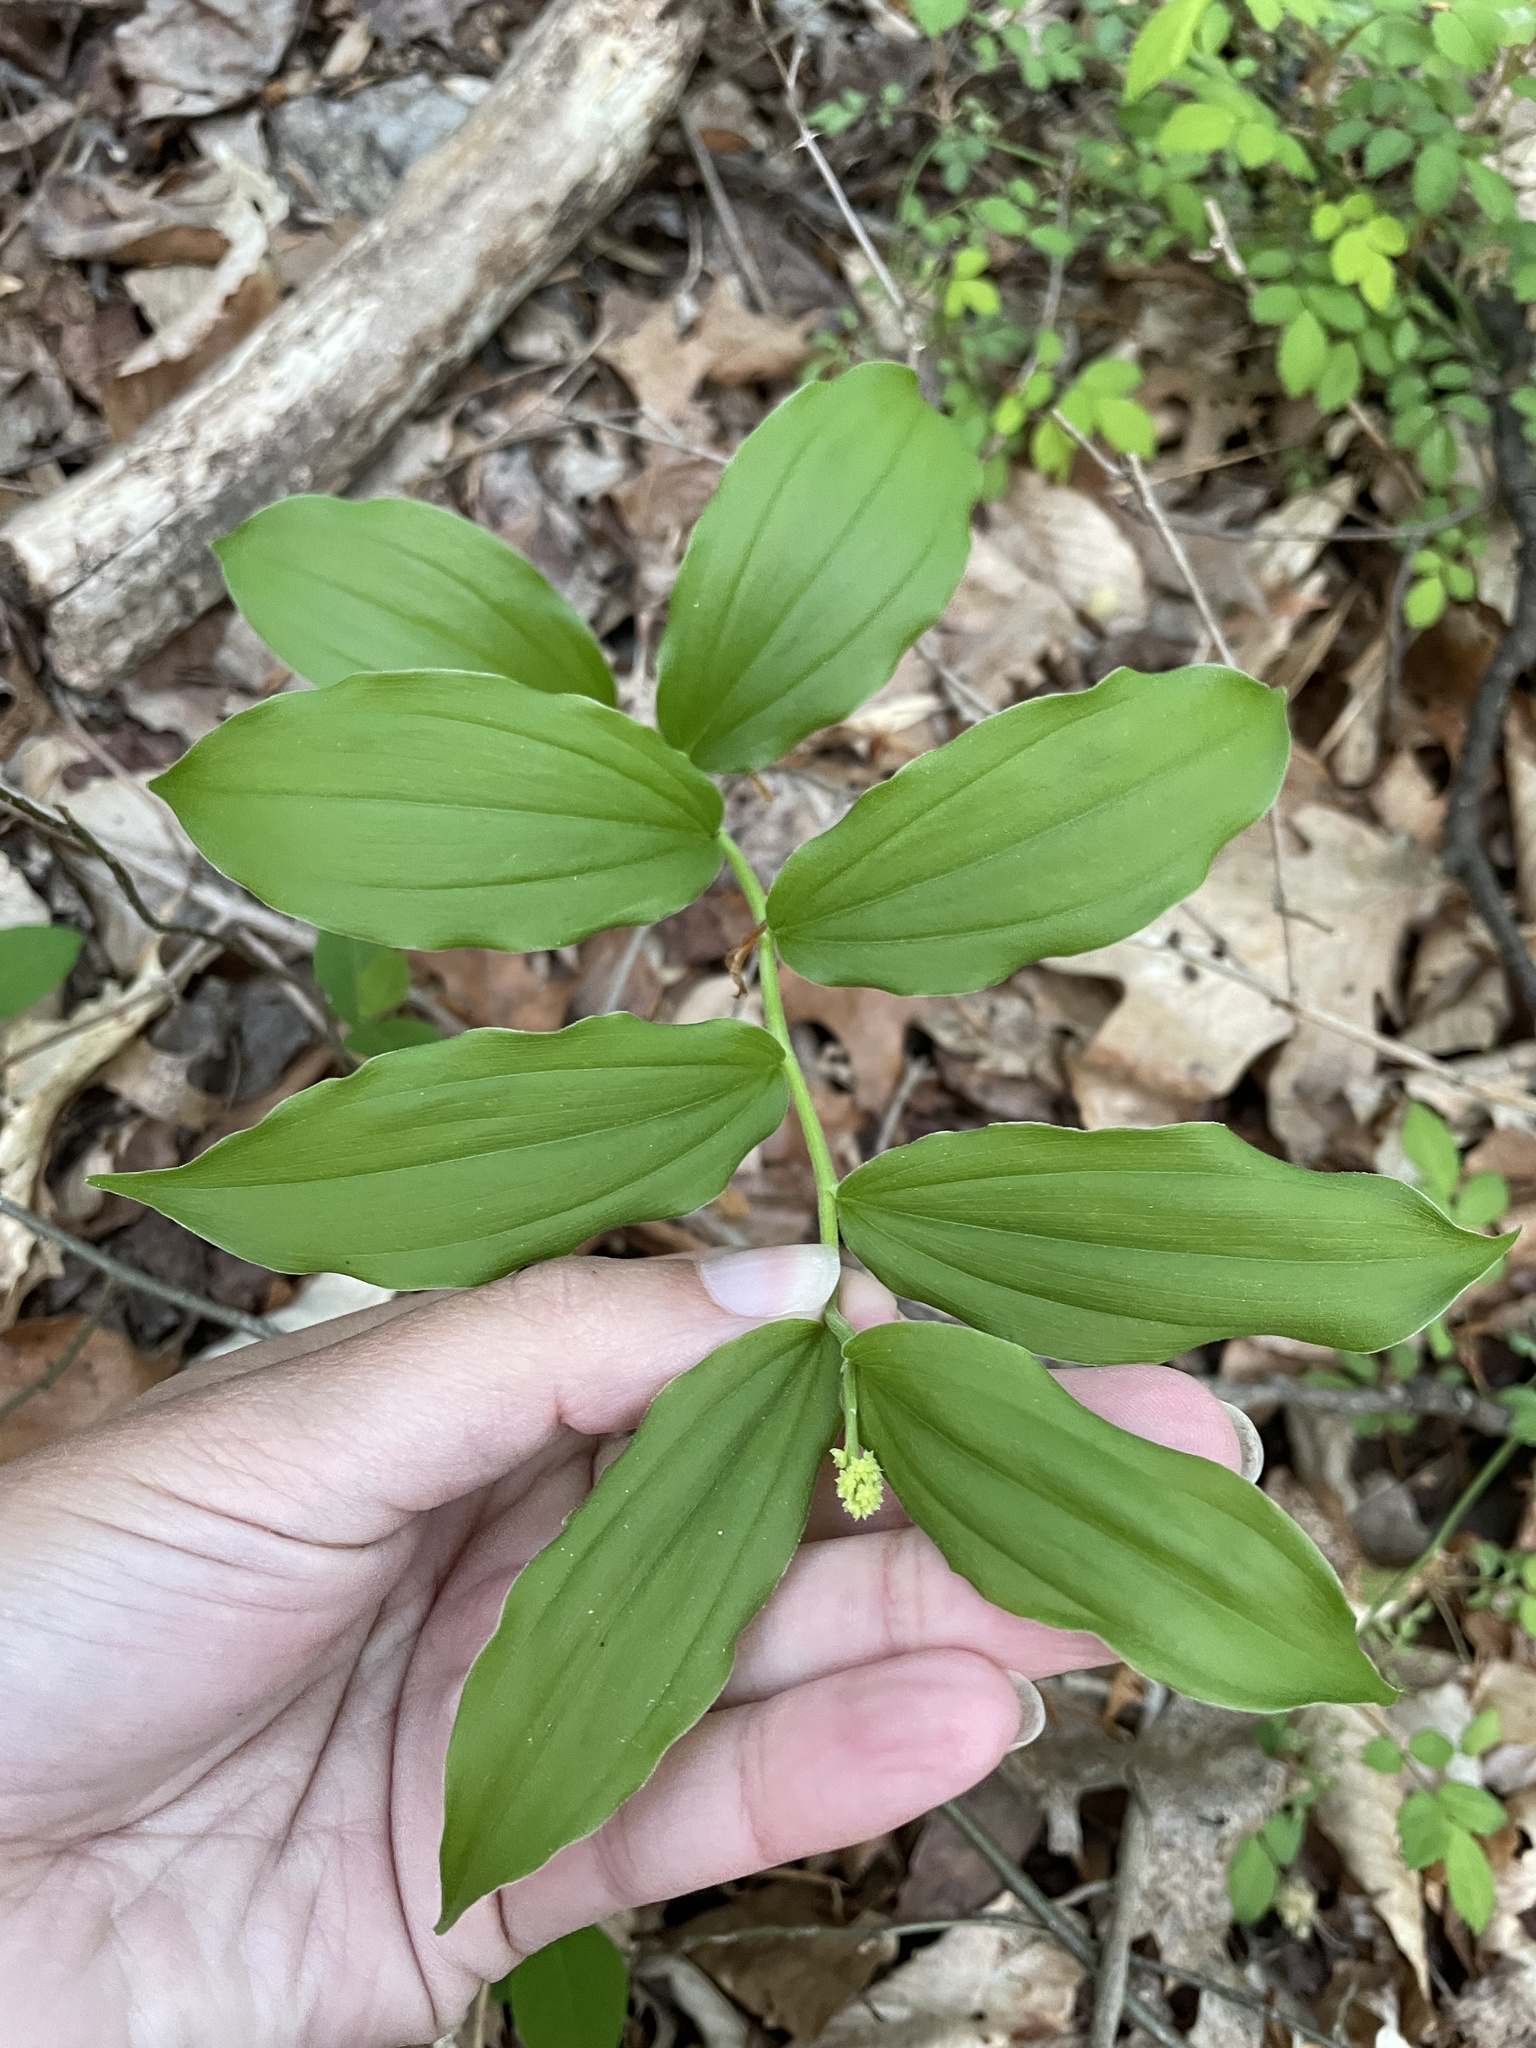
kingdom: Plantae
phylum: Tracheophyta
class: Liliopsida
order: Asparagales
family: Asparagaceae
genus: Maianthemum
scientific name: Maianthemum racemosum
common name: False spikenard
